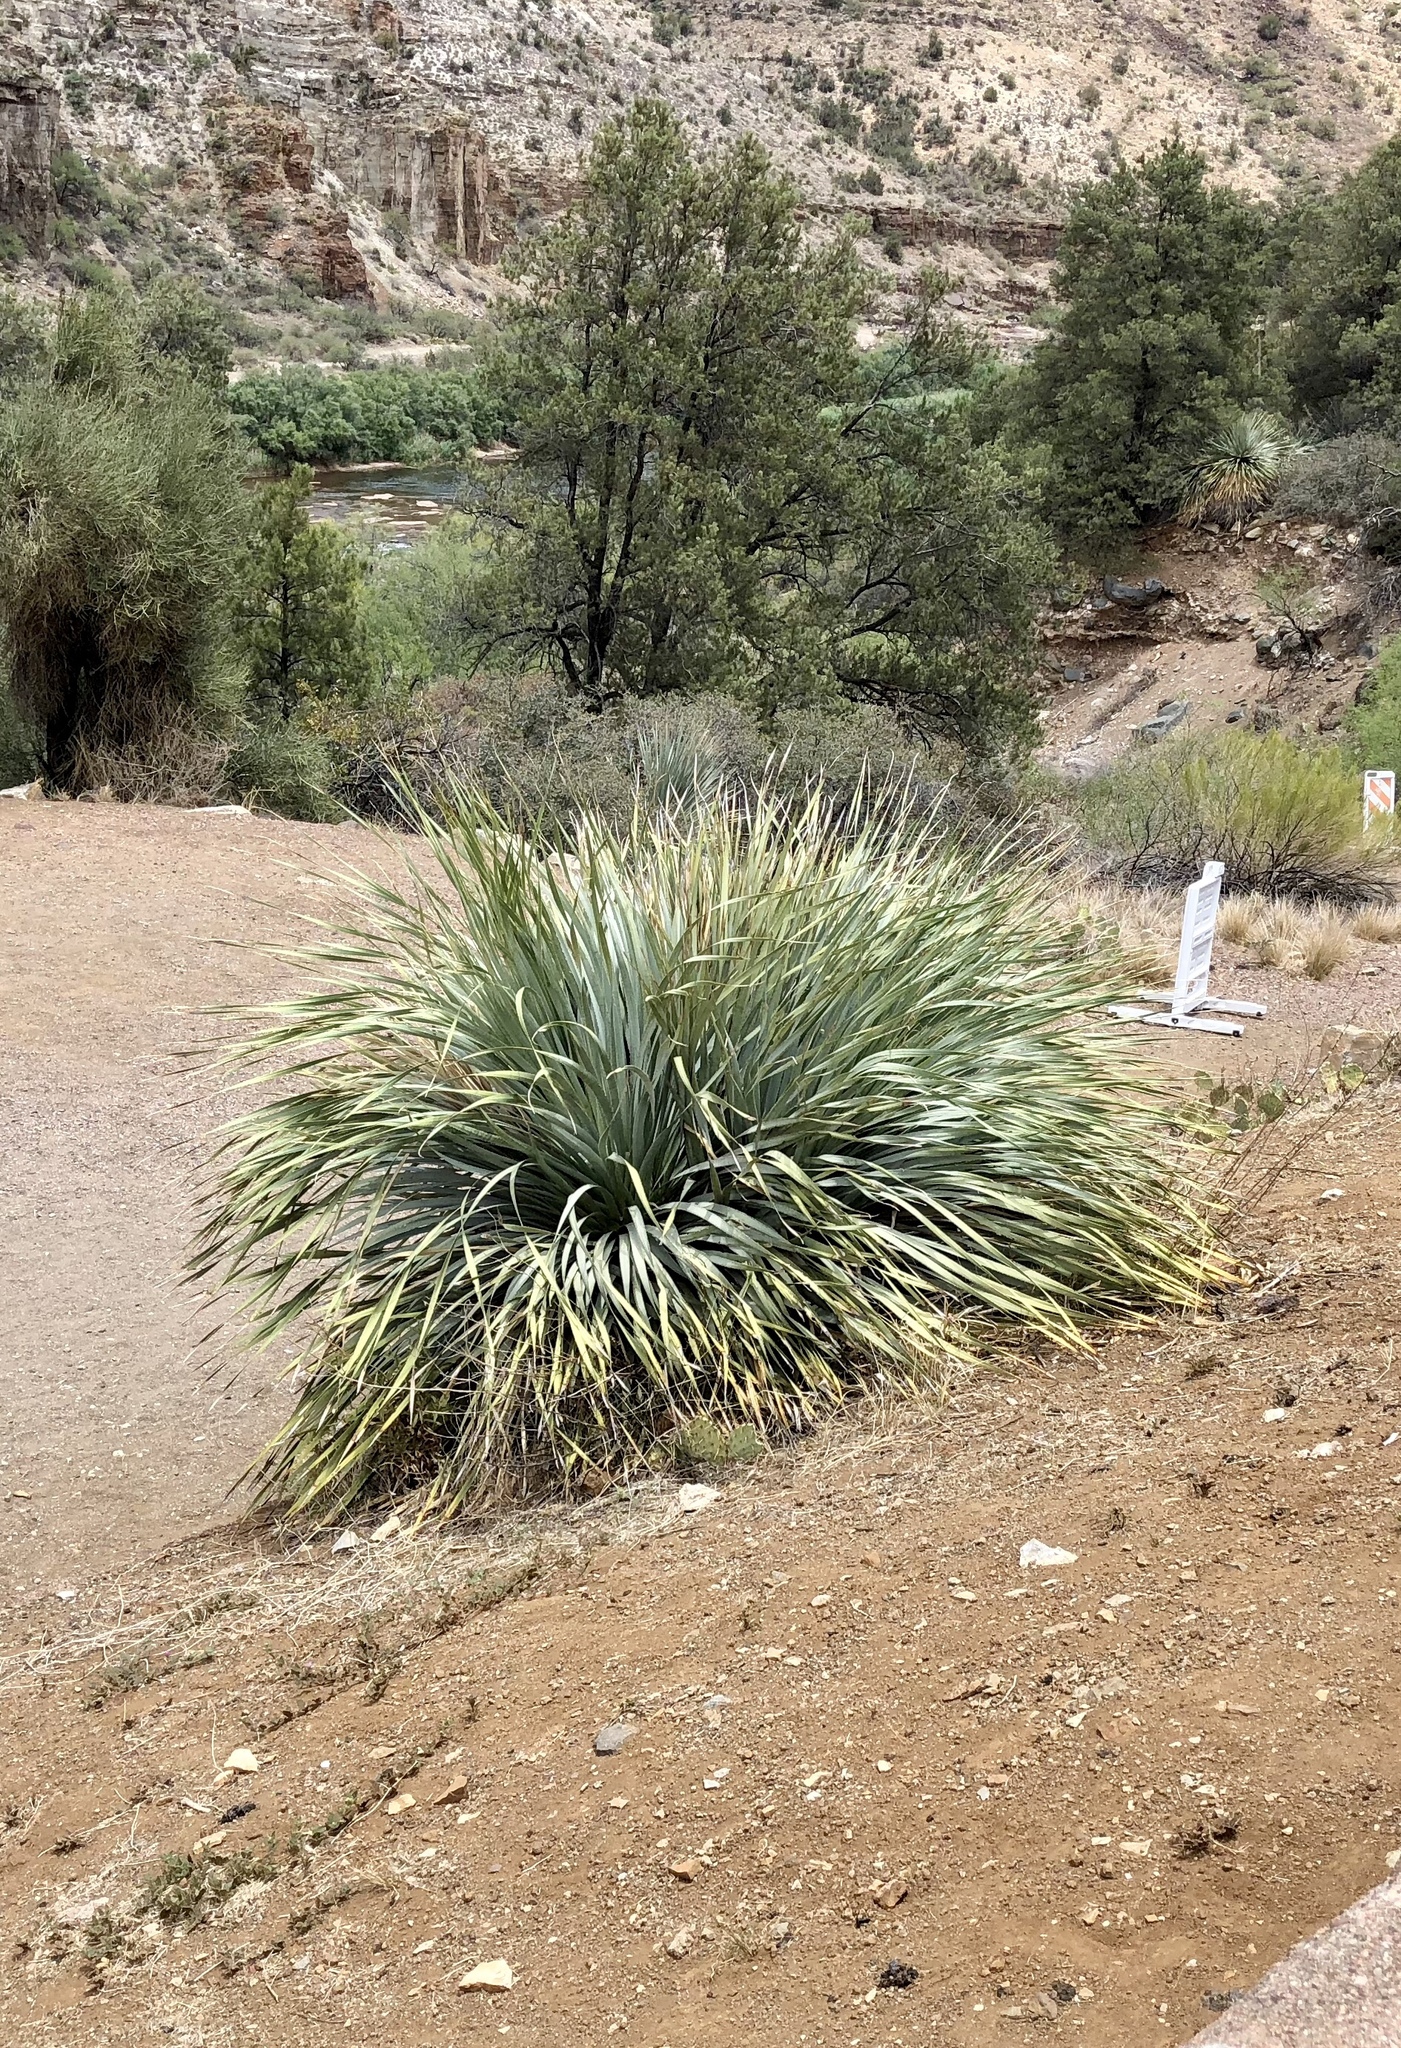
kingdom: Plantae
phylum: Tracheophyta
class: Liliopsida
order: Asparagales
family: Asparagaceae
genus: Dasylirion
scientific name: Dasylirion wheeleri
